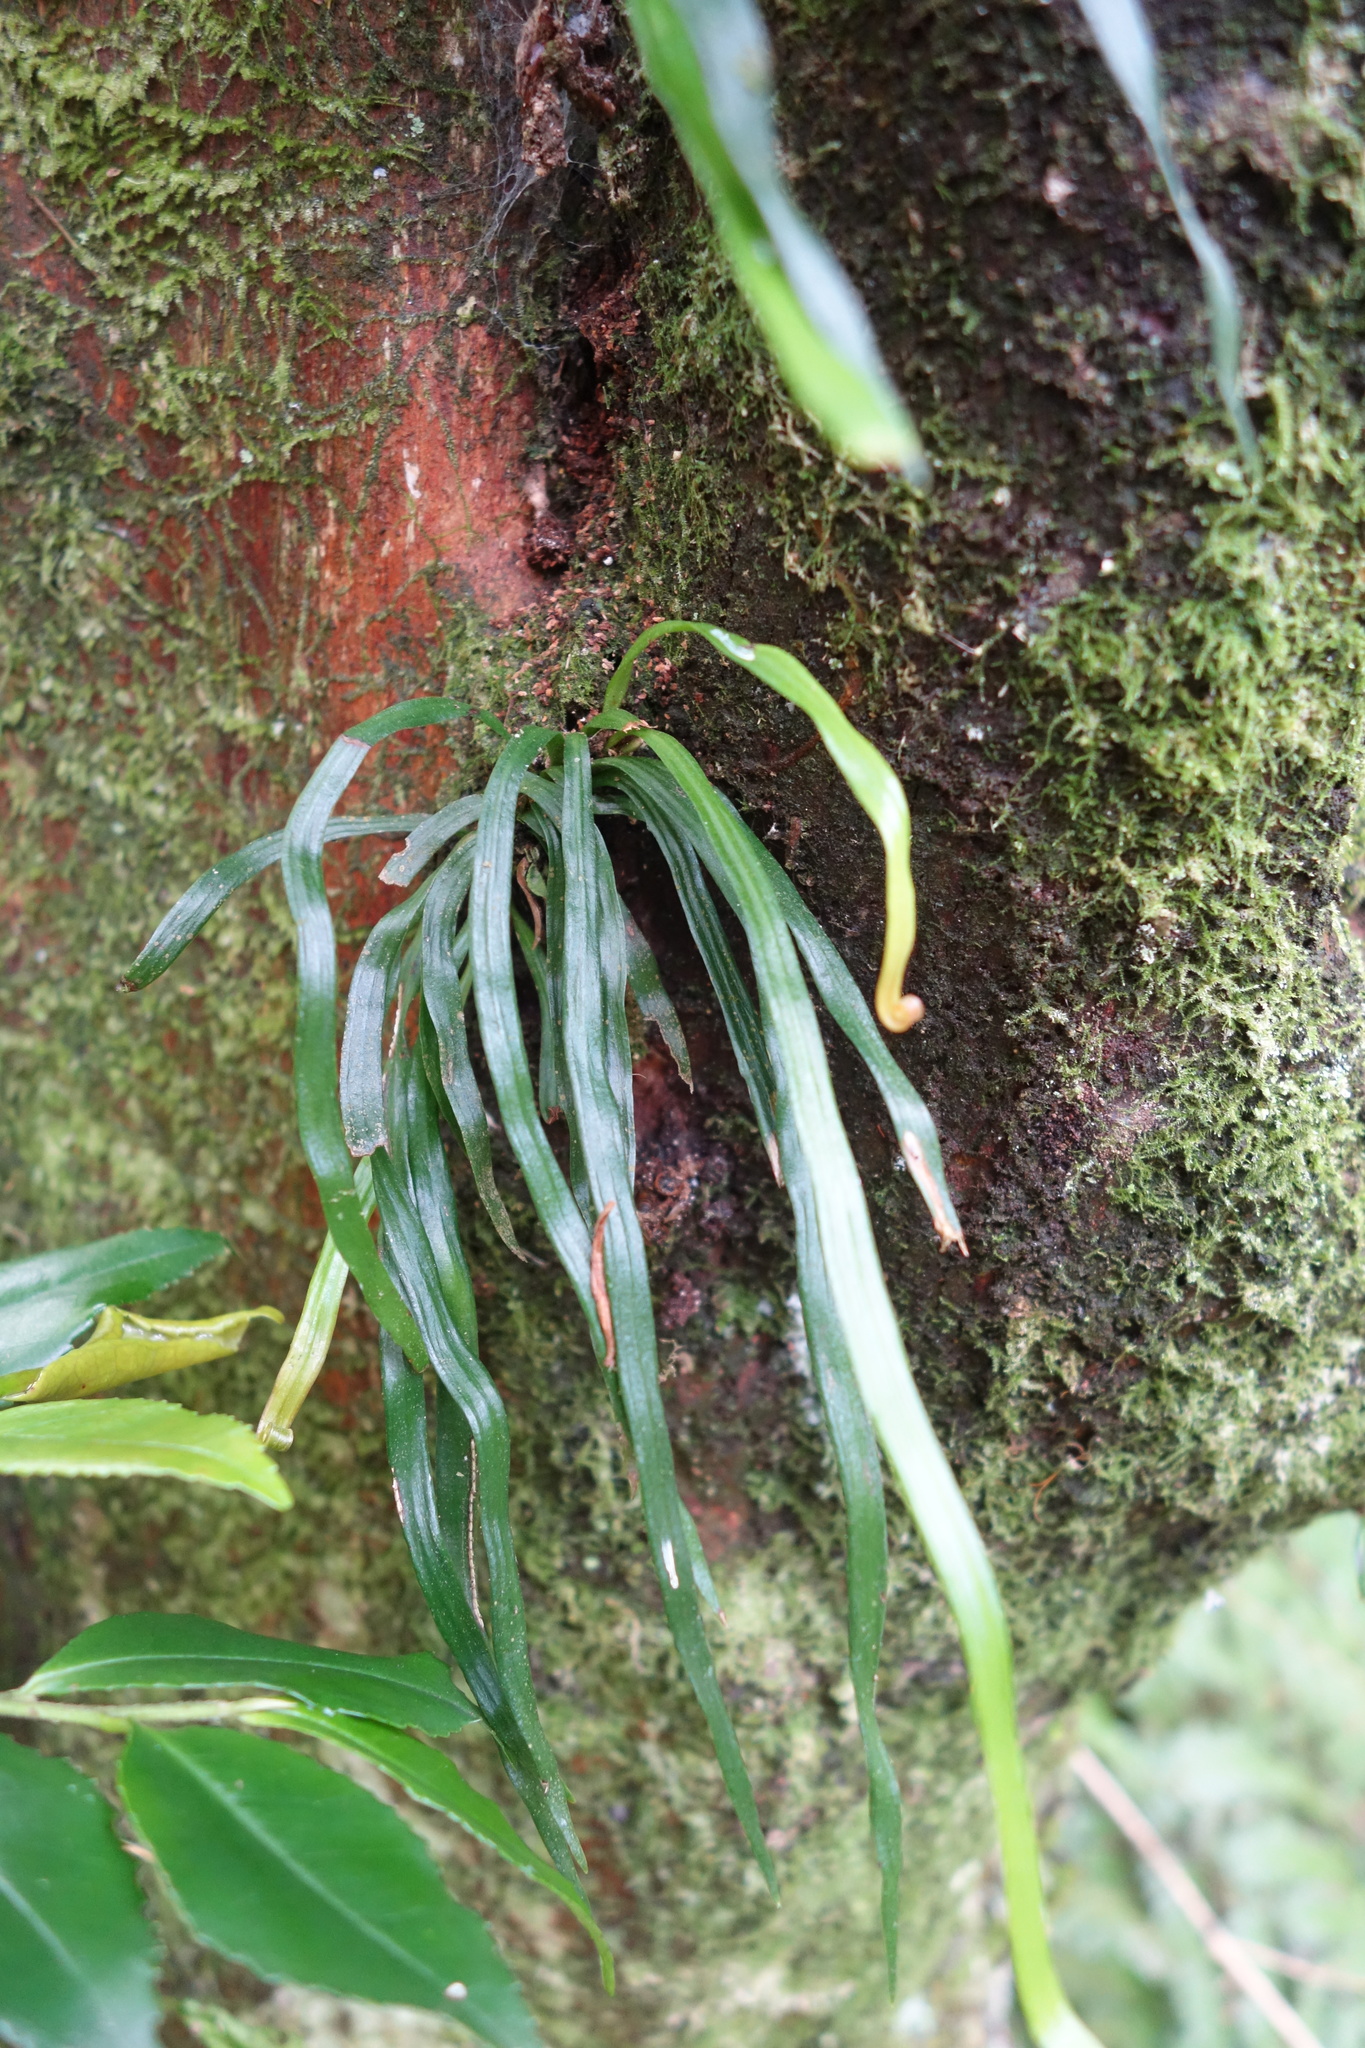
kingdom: Plantae
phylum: Tracheophyta
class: Polypodiopsida
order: Polypodiales
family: Pteridaceae
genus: Haplopteris
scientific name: Haplopteris anguste-elongata
